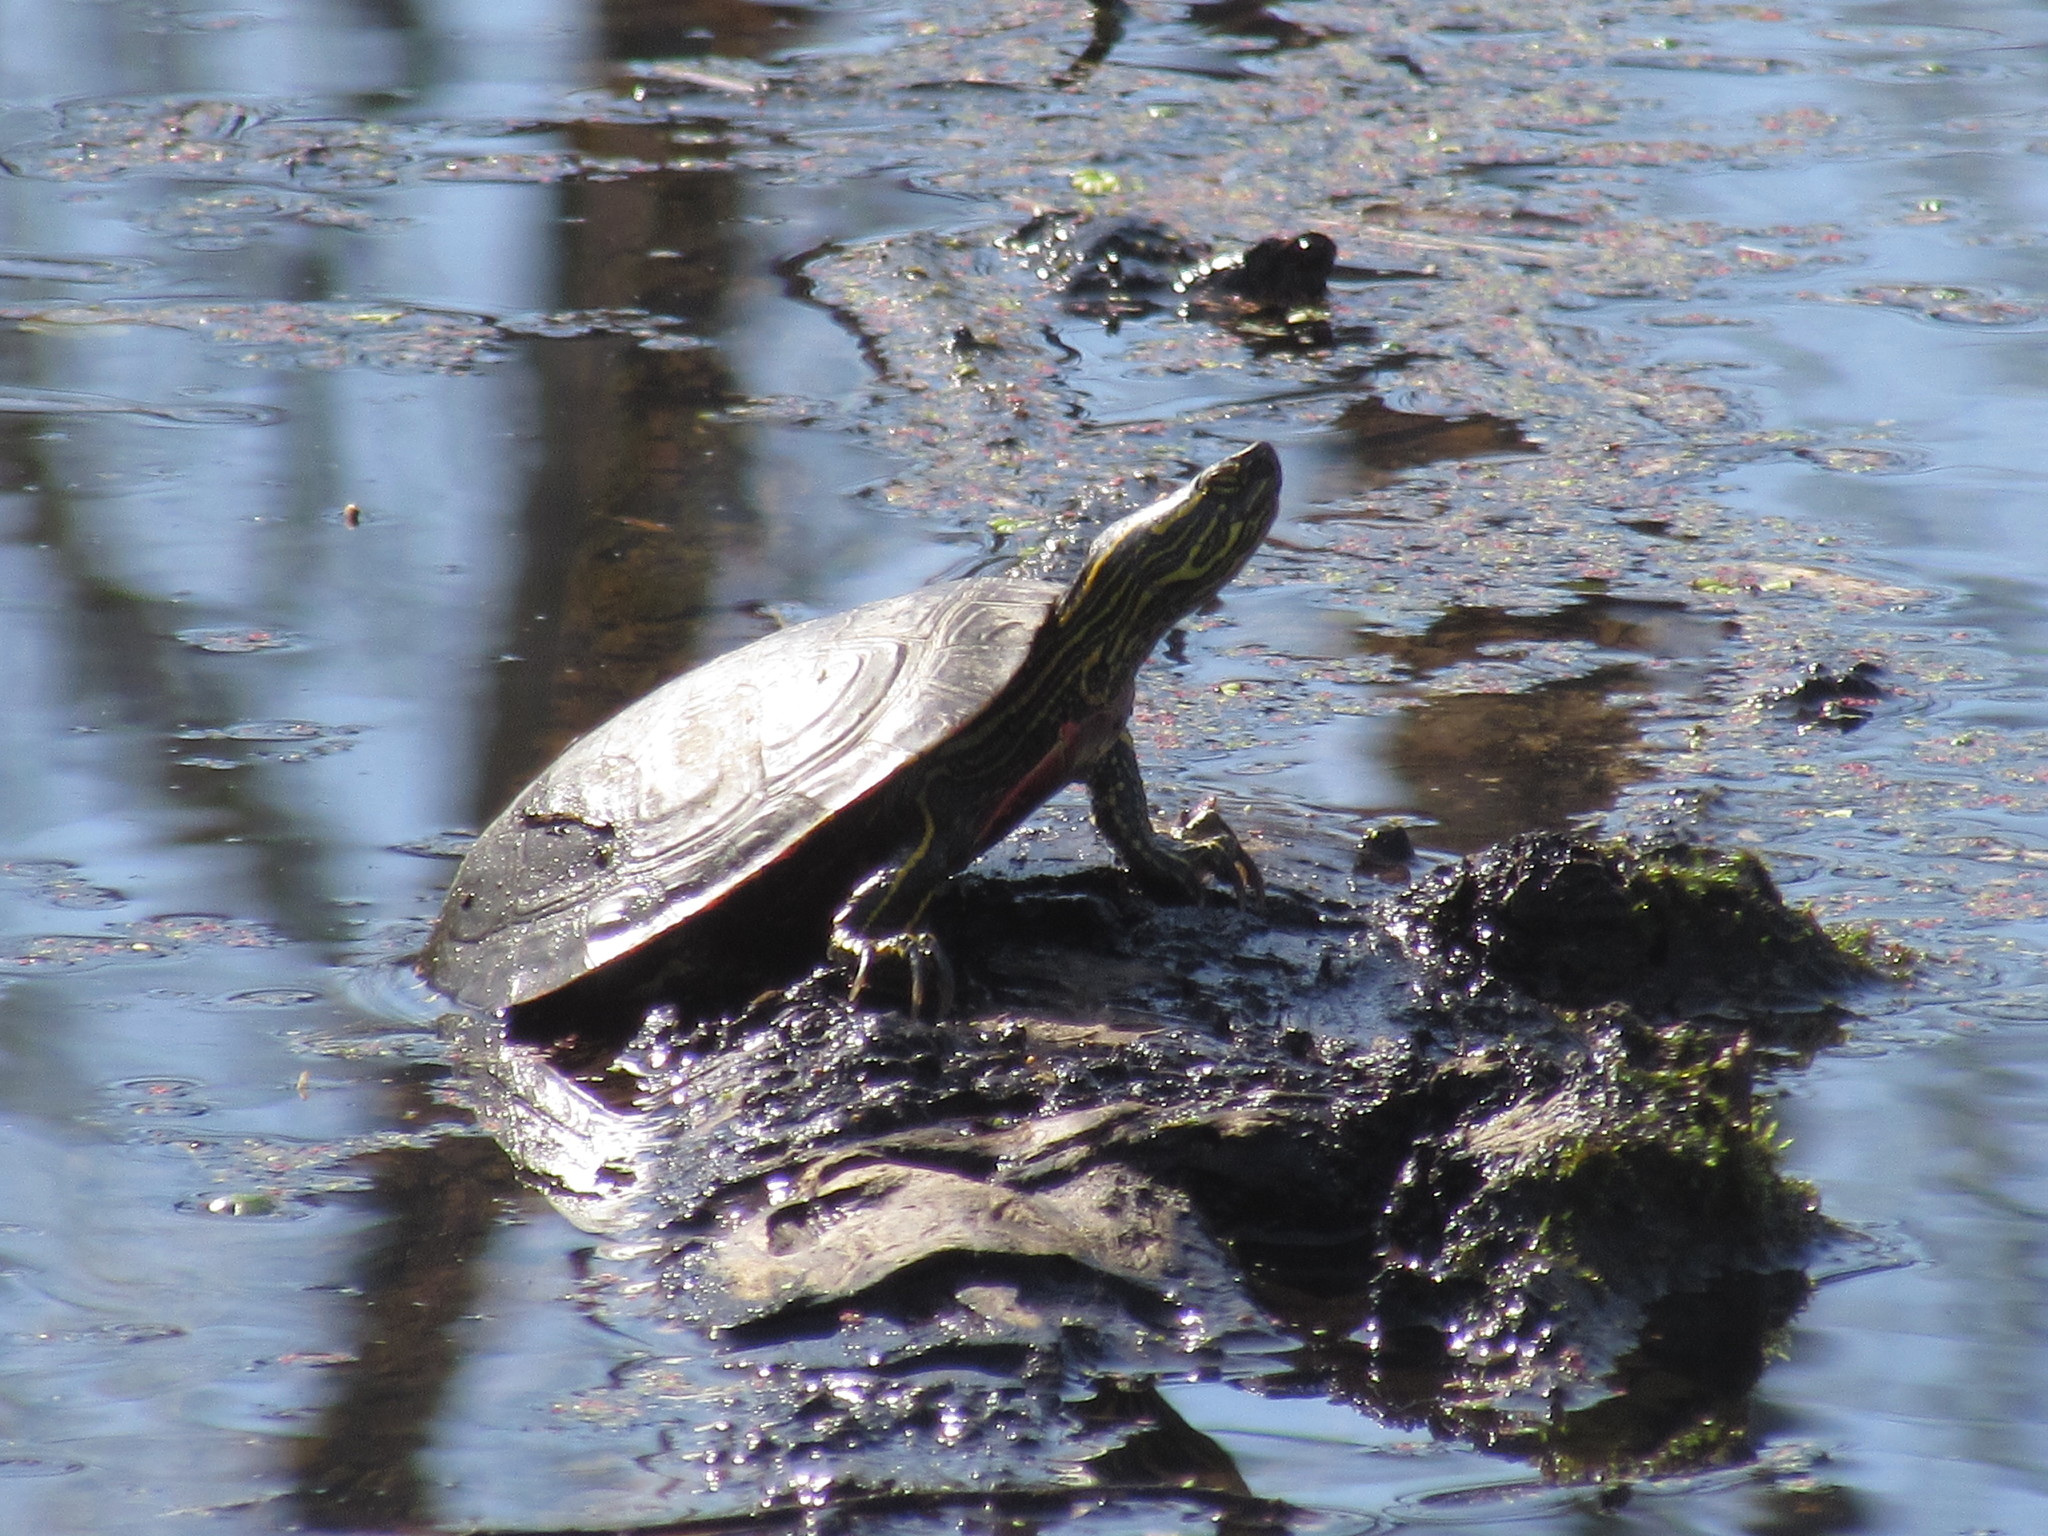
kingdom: Animalia
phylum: Chordata
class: Testudines
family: Emydidae
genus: Chrysemys
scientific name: Chrysemys picta
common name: Painted turtle
